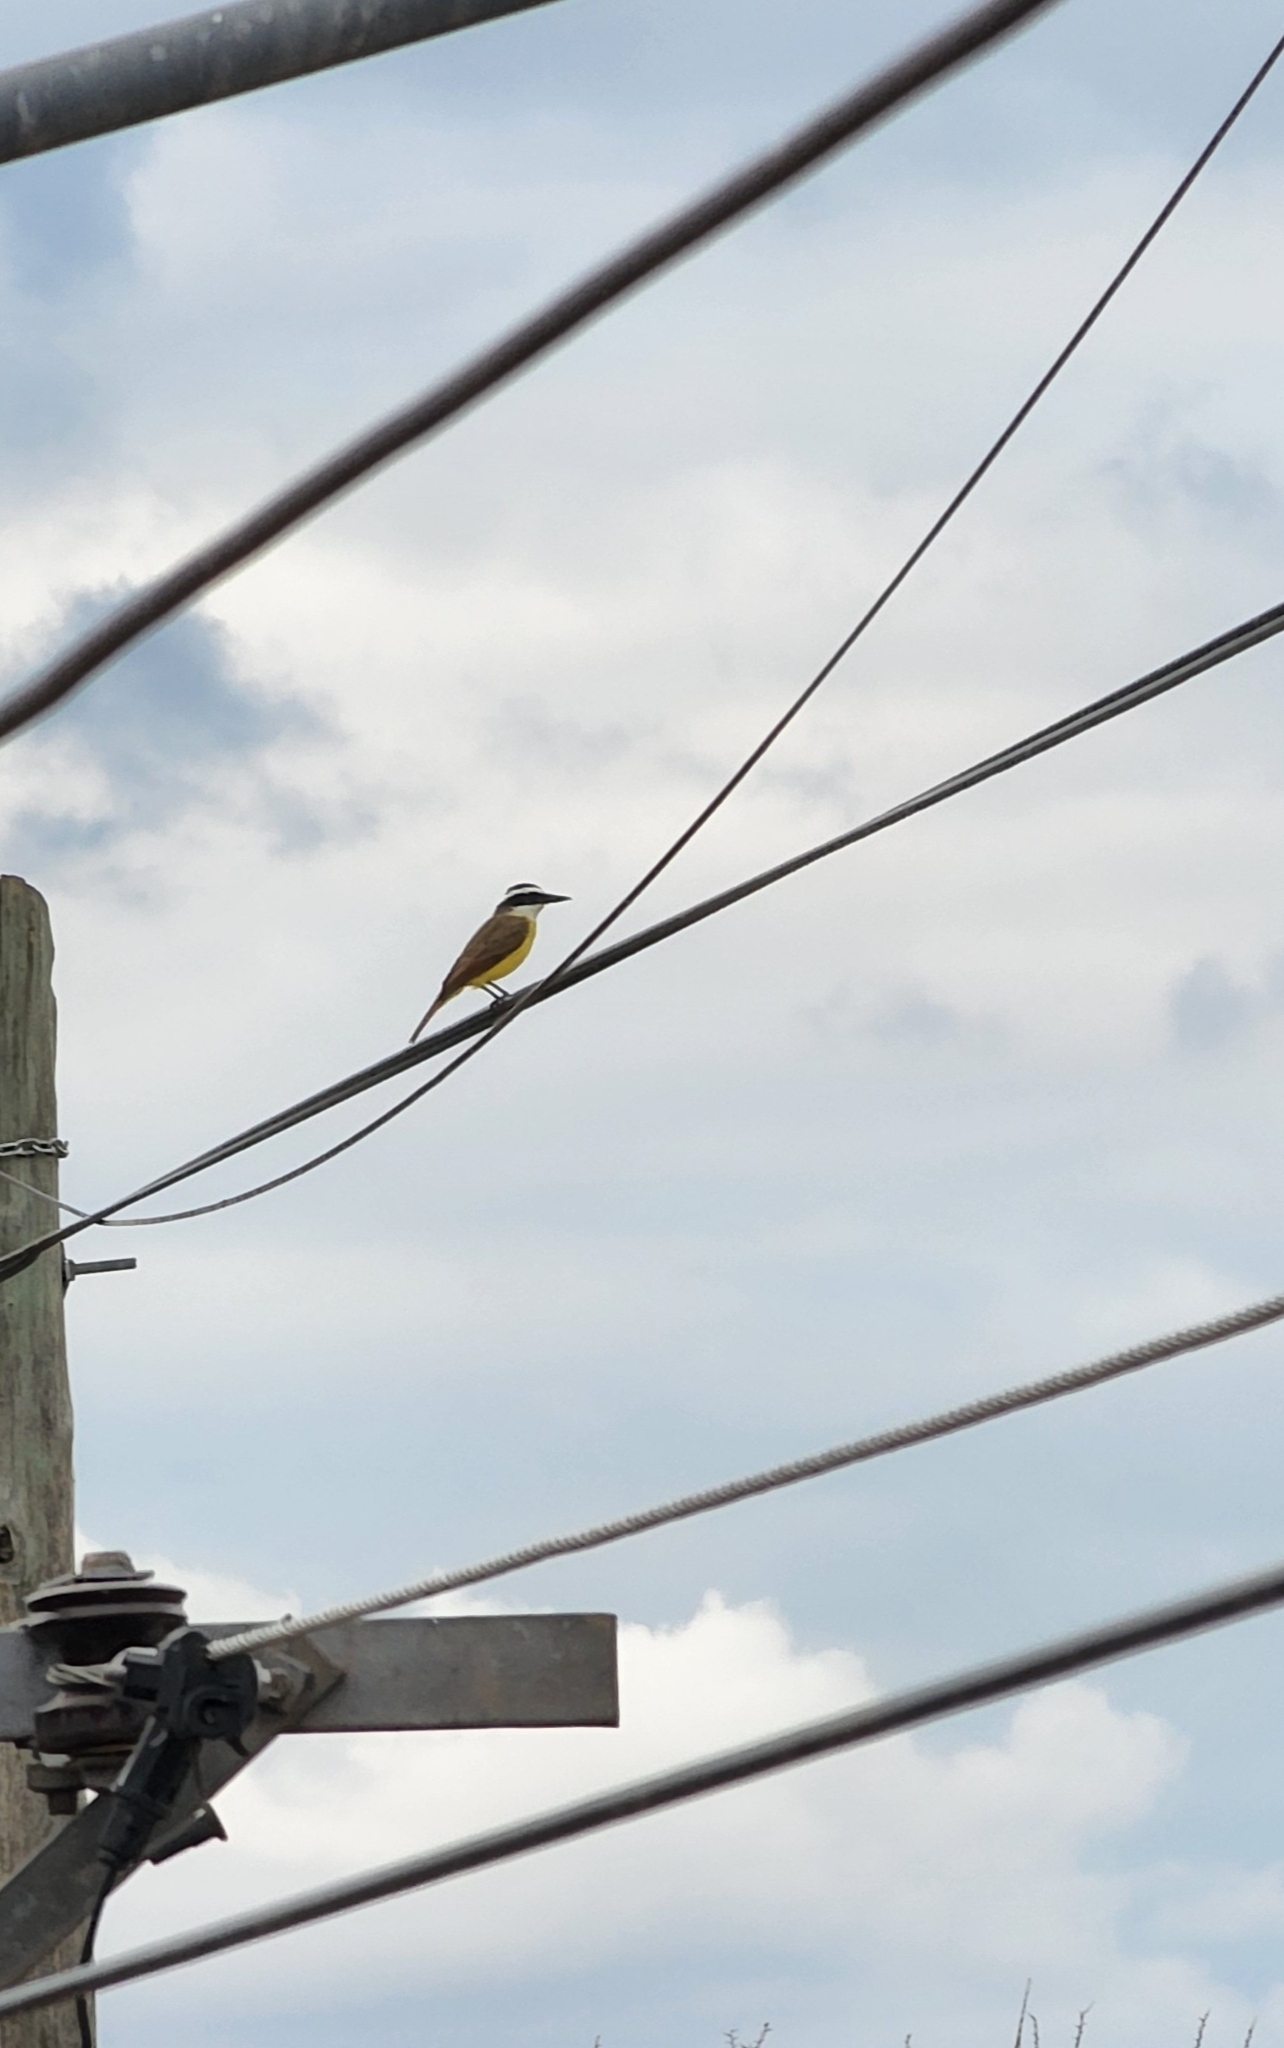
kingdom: Animalia
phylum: Chordata
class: Aves
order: Passeriformes
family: Tyrannidae
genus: Pitangus
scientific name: Pitangus sulphuratus
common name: Great kiskadee
